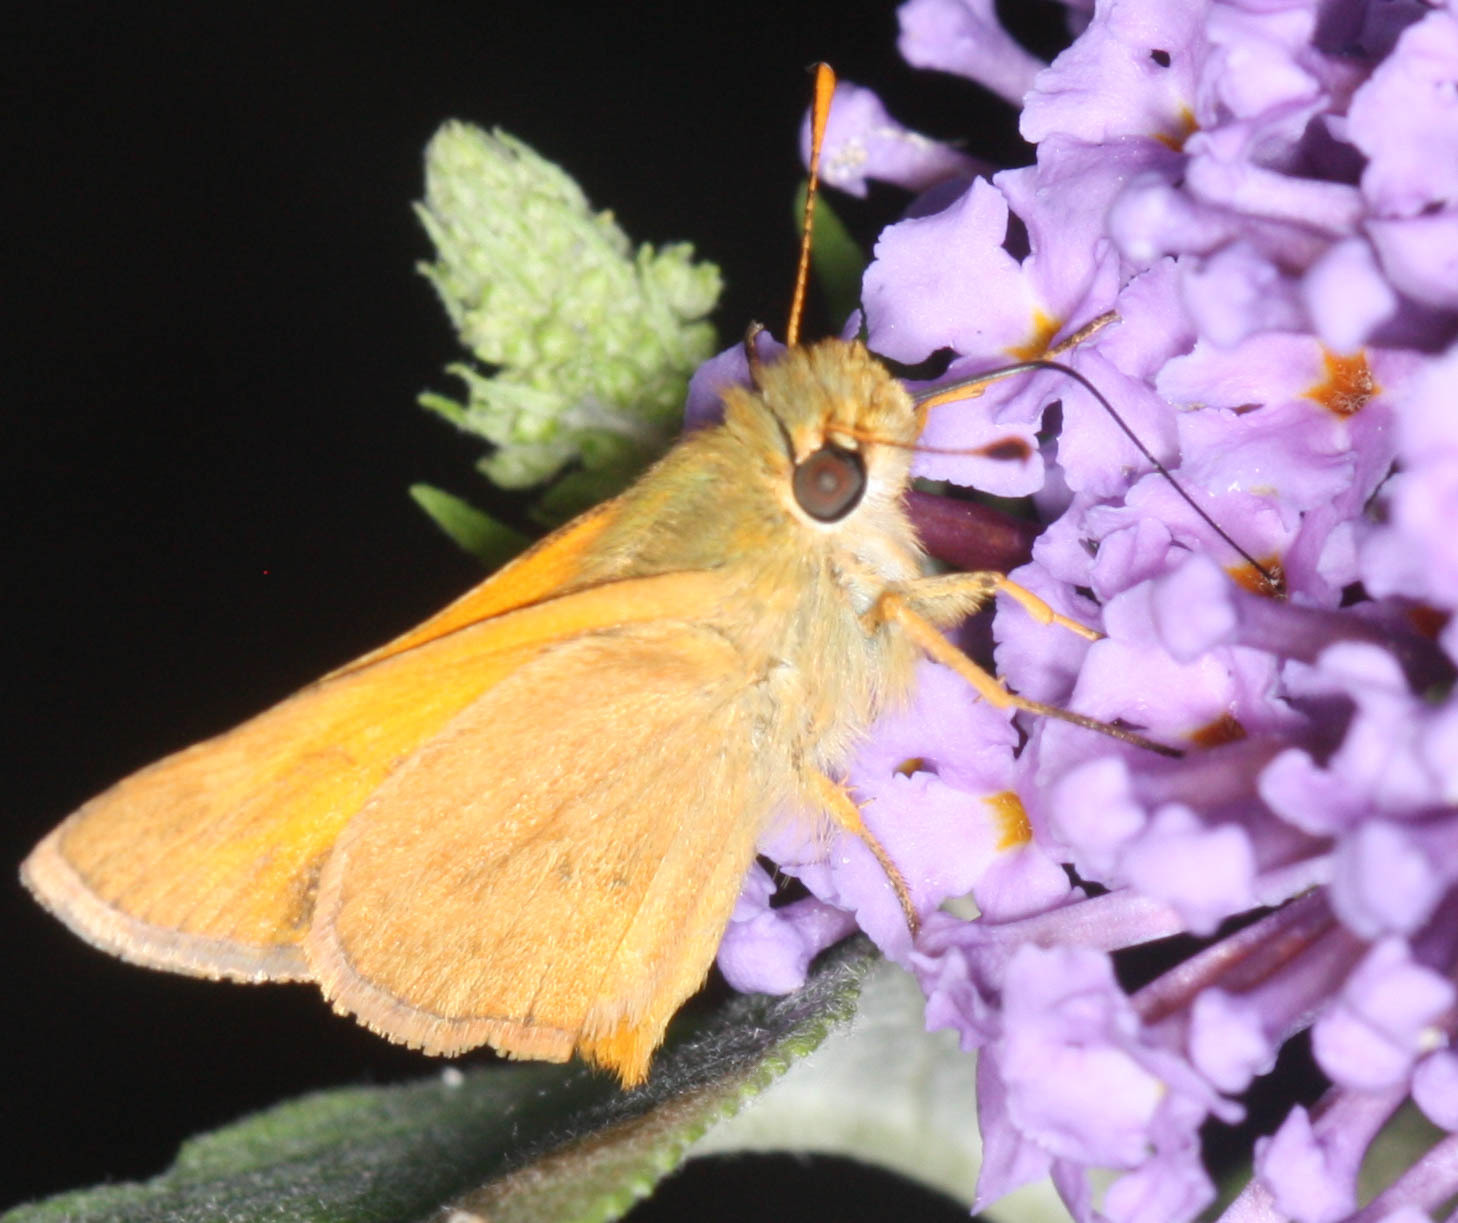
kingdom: Animalia
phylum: Arthropoda
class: Insecta
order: Lepidoptera
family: Hesperiidae
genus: Ochlodes
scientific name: Ochlodes sylvanoides
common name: Woodland skipper
